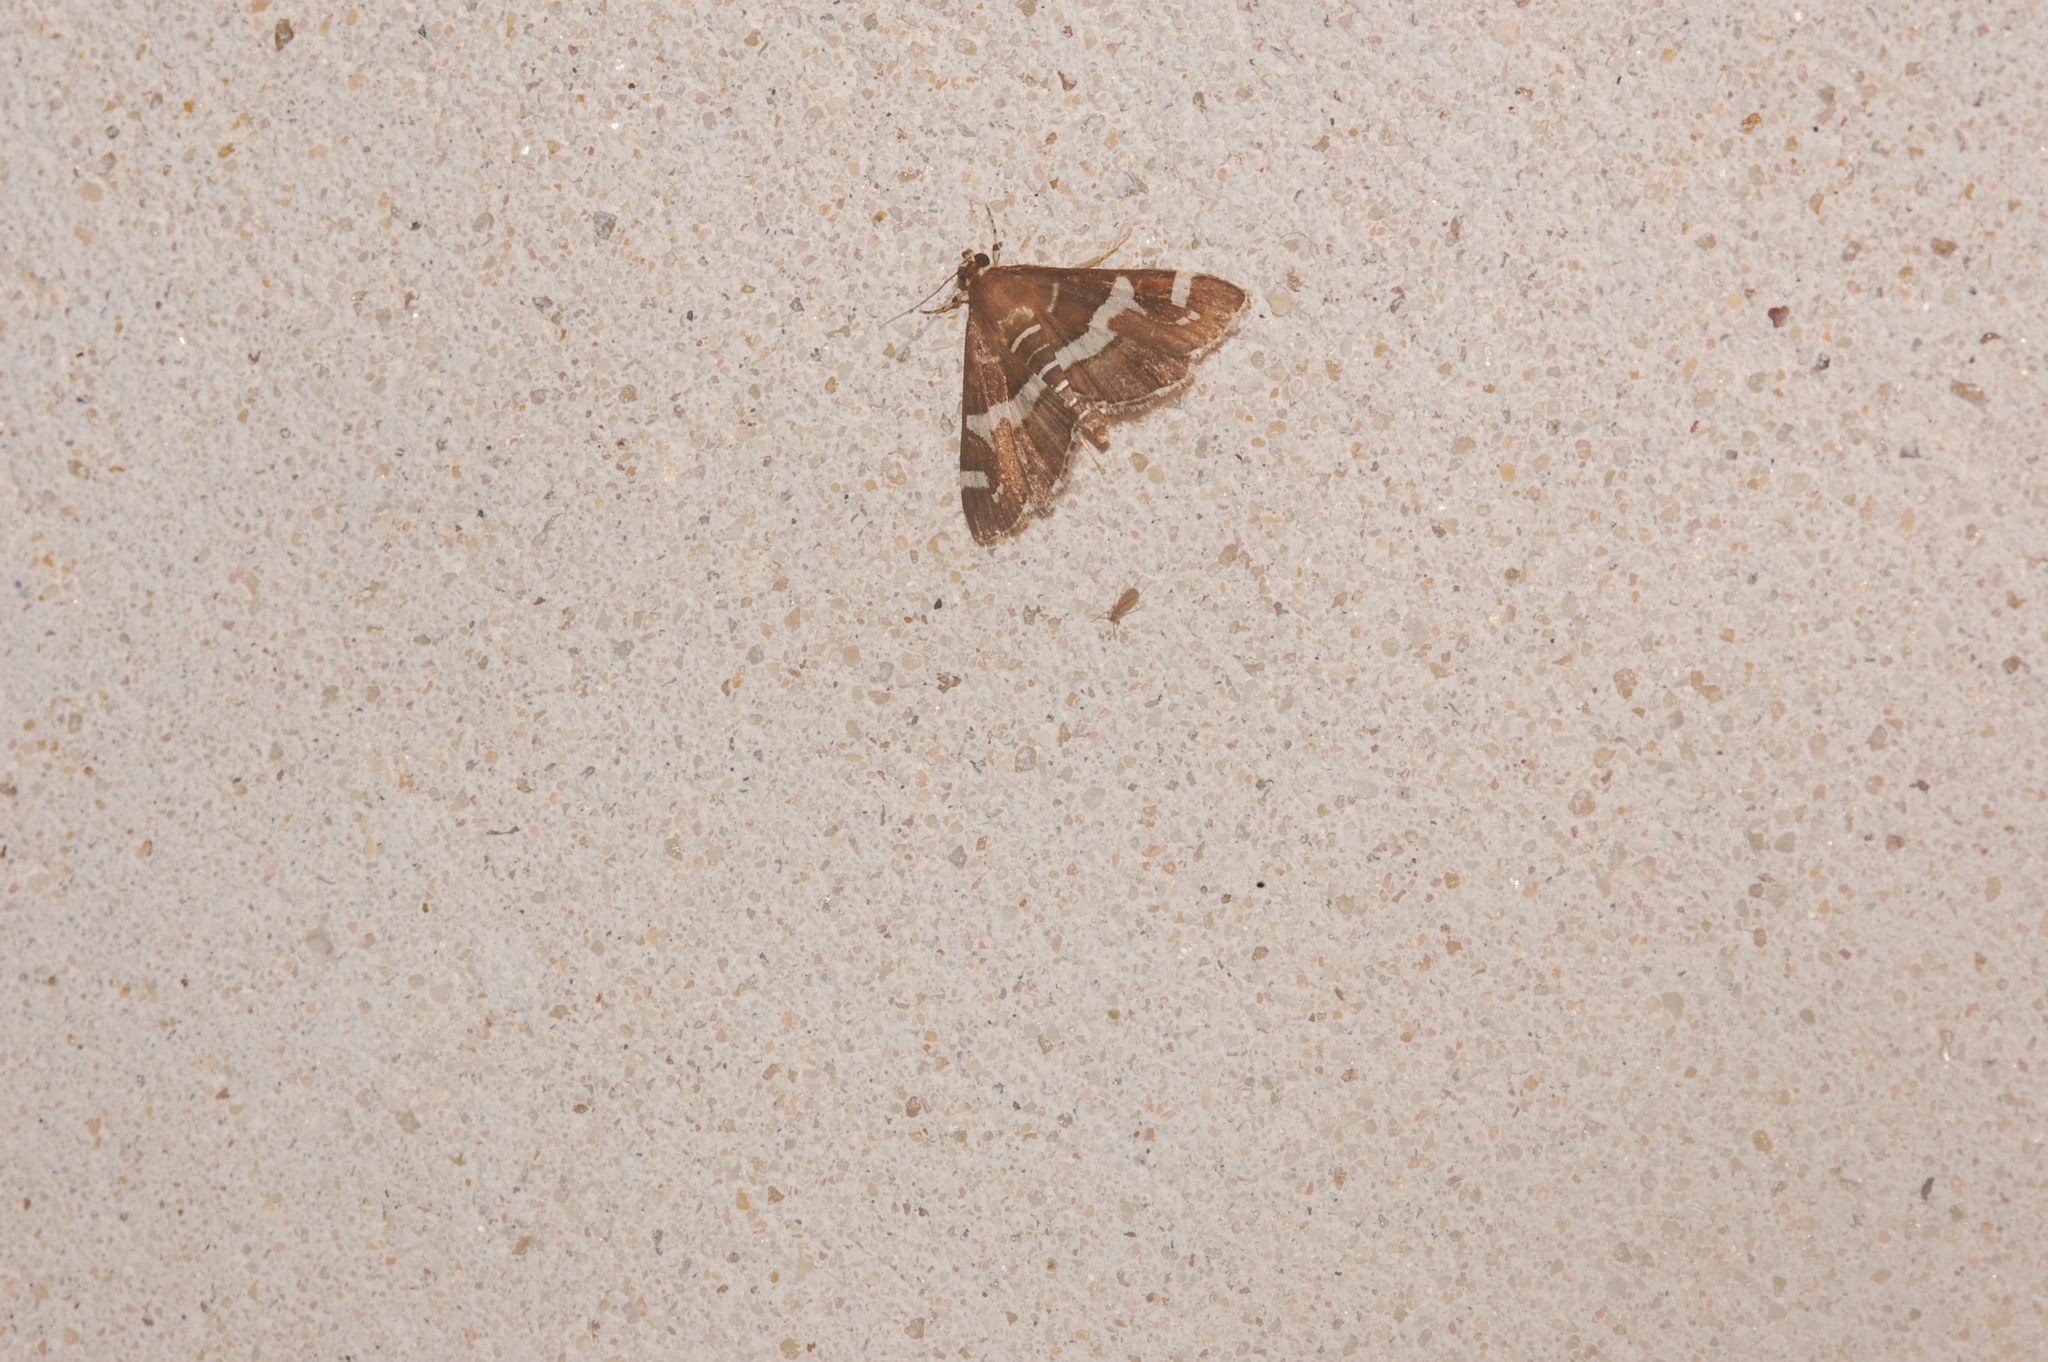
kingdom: Animalia
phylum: Arthropoda
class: Insecta
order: Lepidoptera
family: Crambidae
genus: Spoladea
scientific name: Spoladea recurvalis
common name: Beet webworm moth
